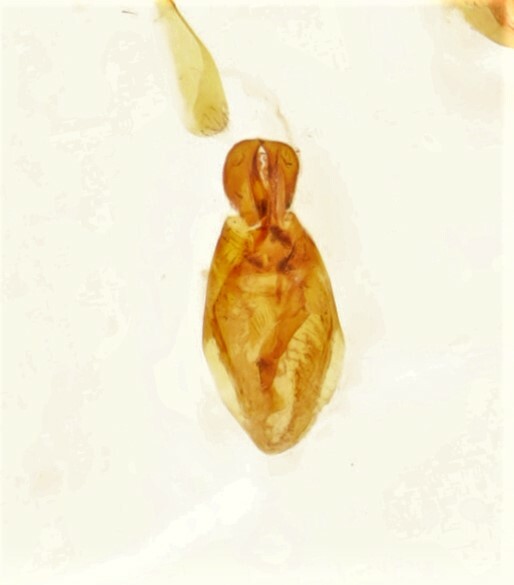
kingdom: Animalia
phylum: Arthropoda
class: Insecta
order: Coleoptera
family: Staphylinidae
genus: Gyrohypnus
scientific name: Gyrohypnus angustatus
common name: Staph beetle
